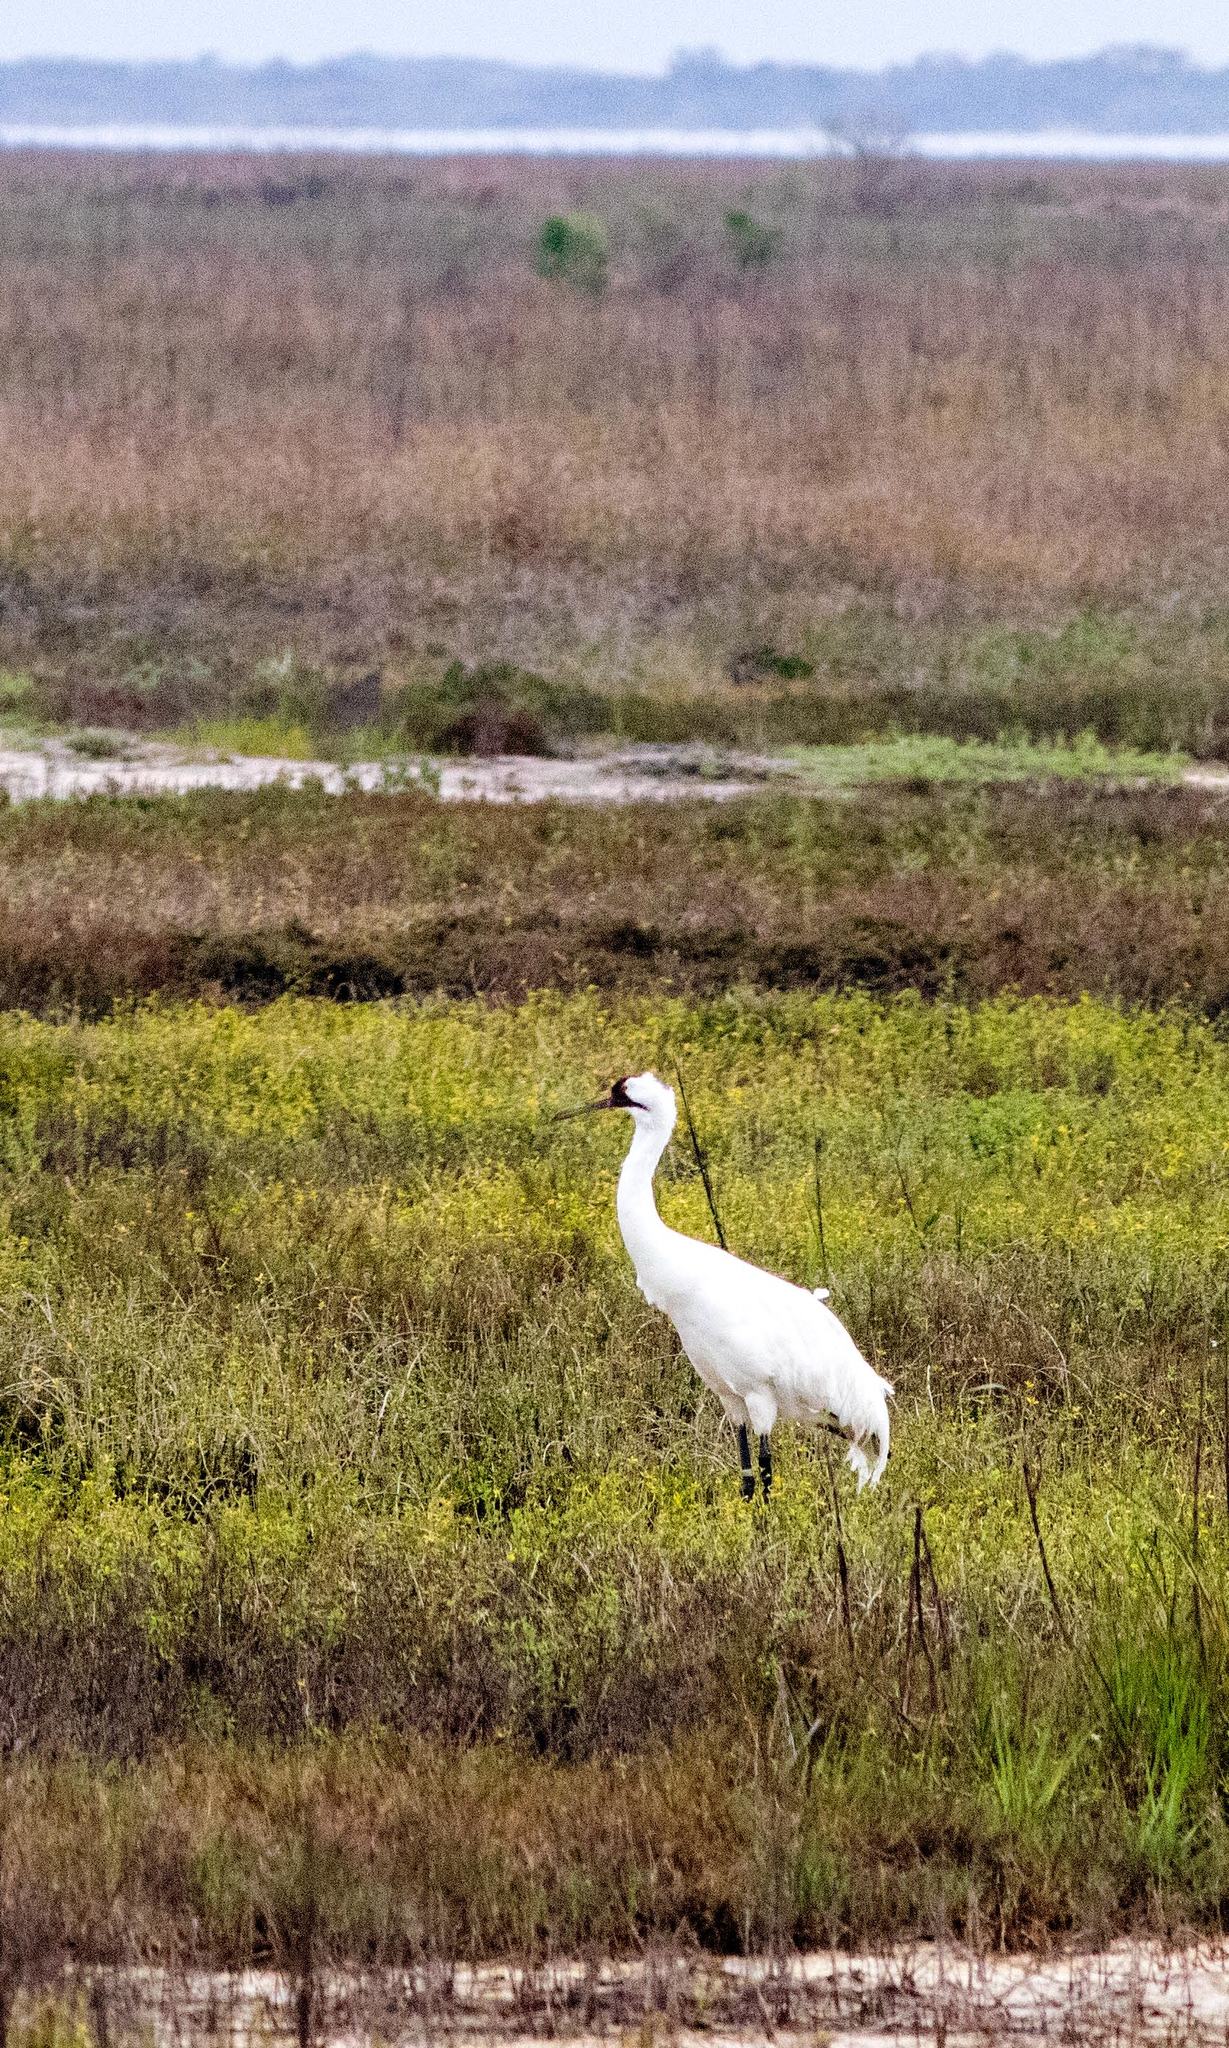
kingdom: Animalia
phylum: Chordata
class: Aves
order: Gruiformes
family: Gruidae
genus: Grus
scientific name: Grus americana
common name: Whooping crane
